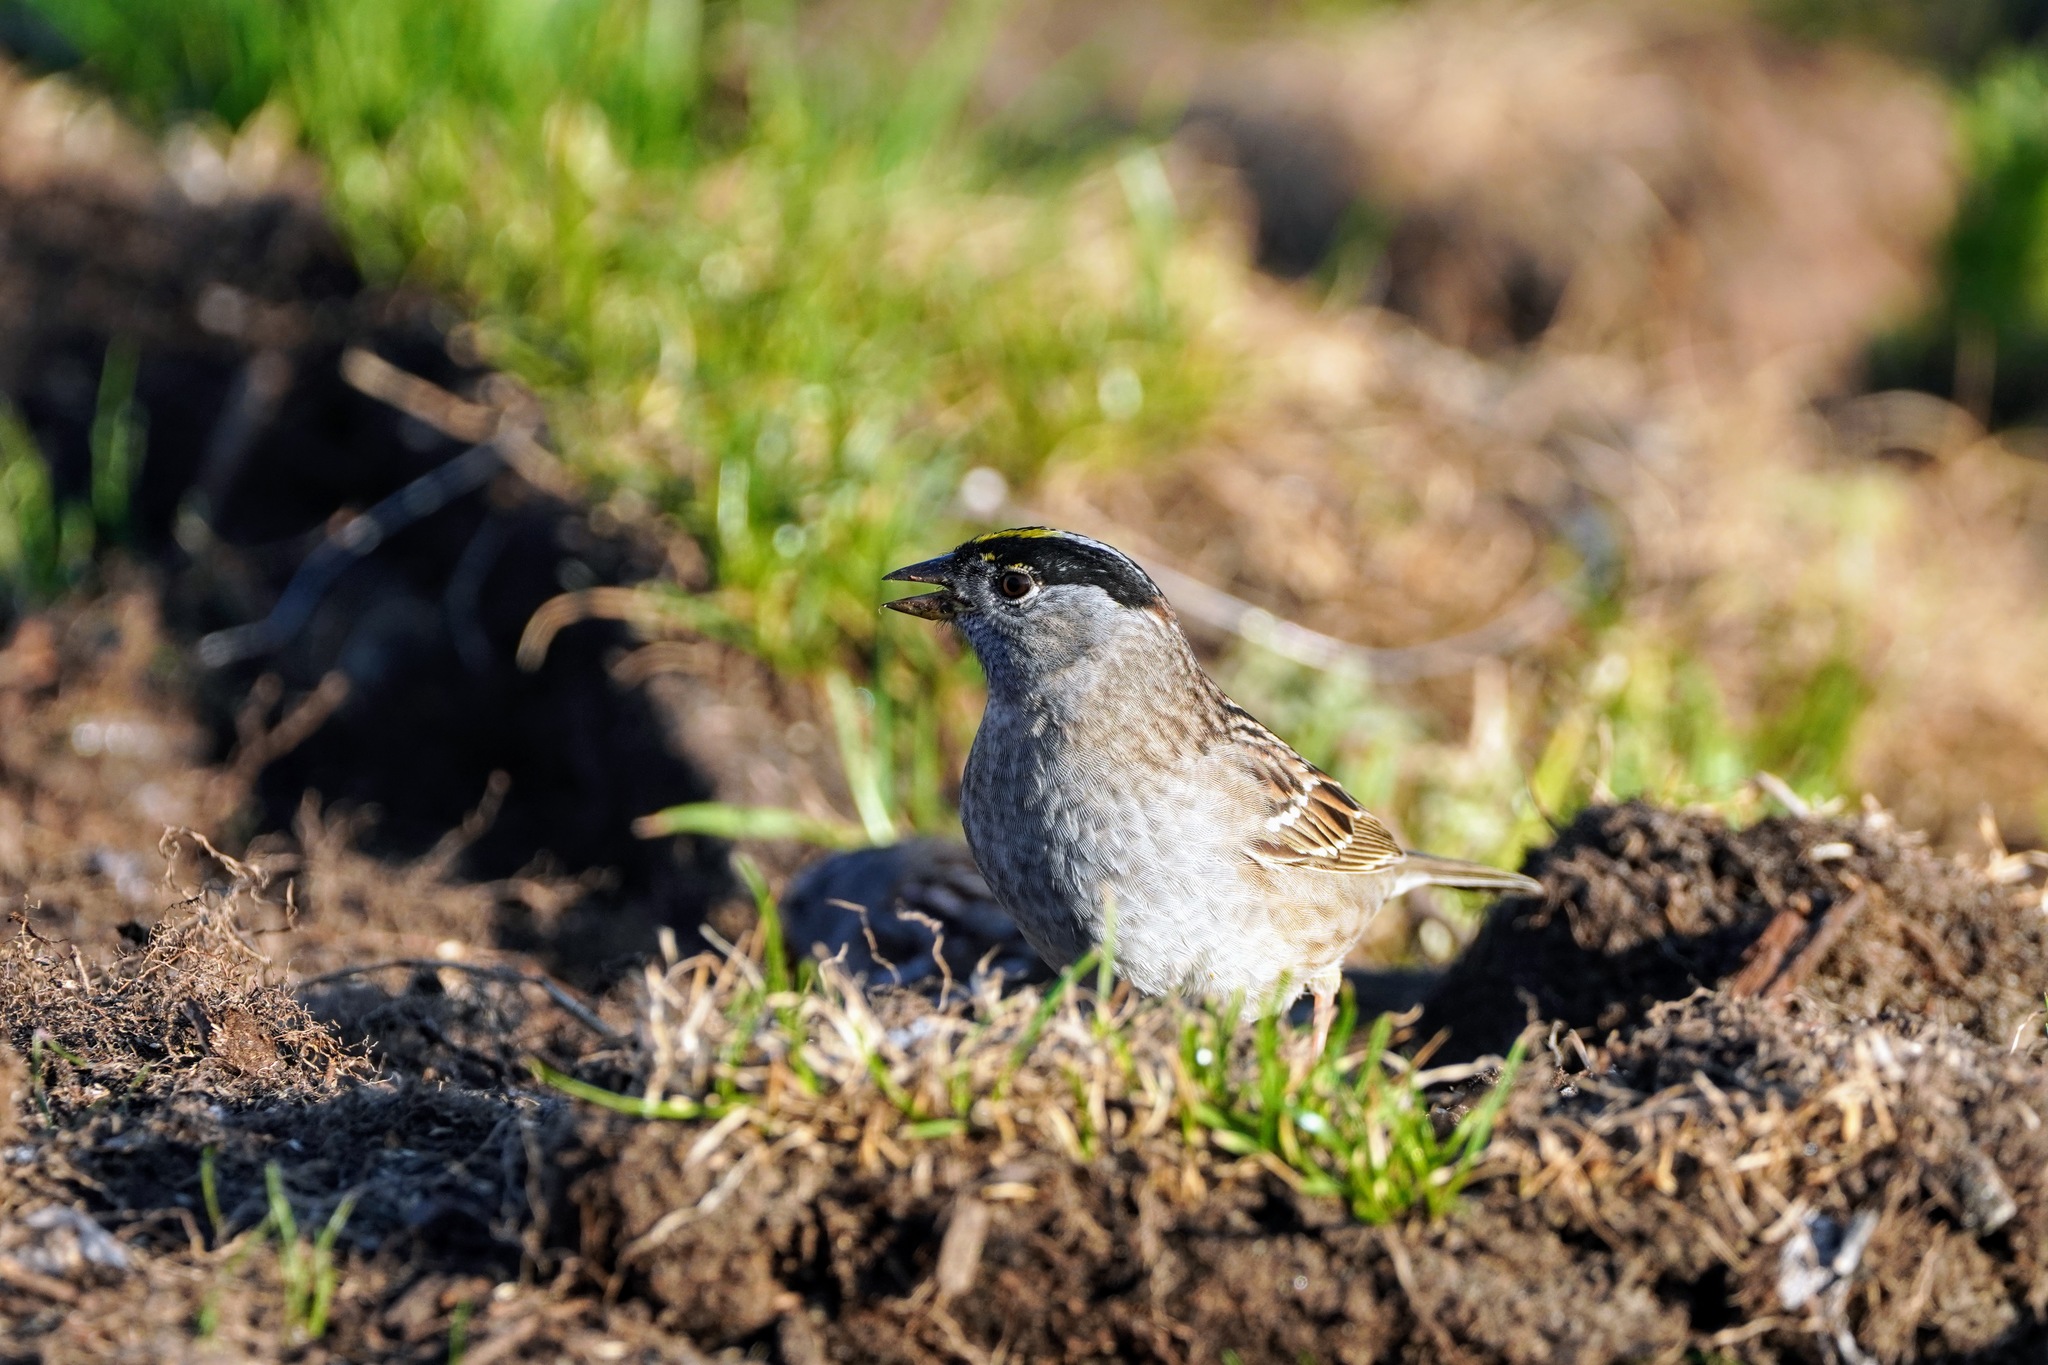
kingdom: Animalia
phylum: Chordata
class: Aves
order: Passeriformes
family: Passerellidae
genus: Zonotrichia
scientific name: Zonotrichia atricapilla
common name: Golden-crowned sparrow
